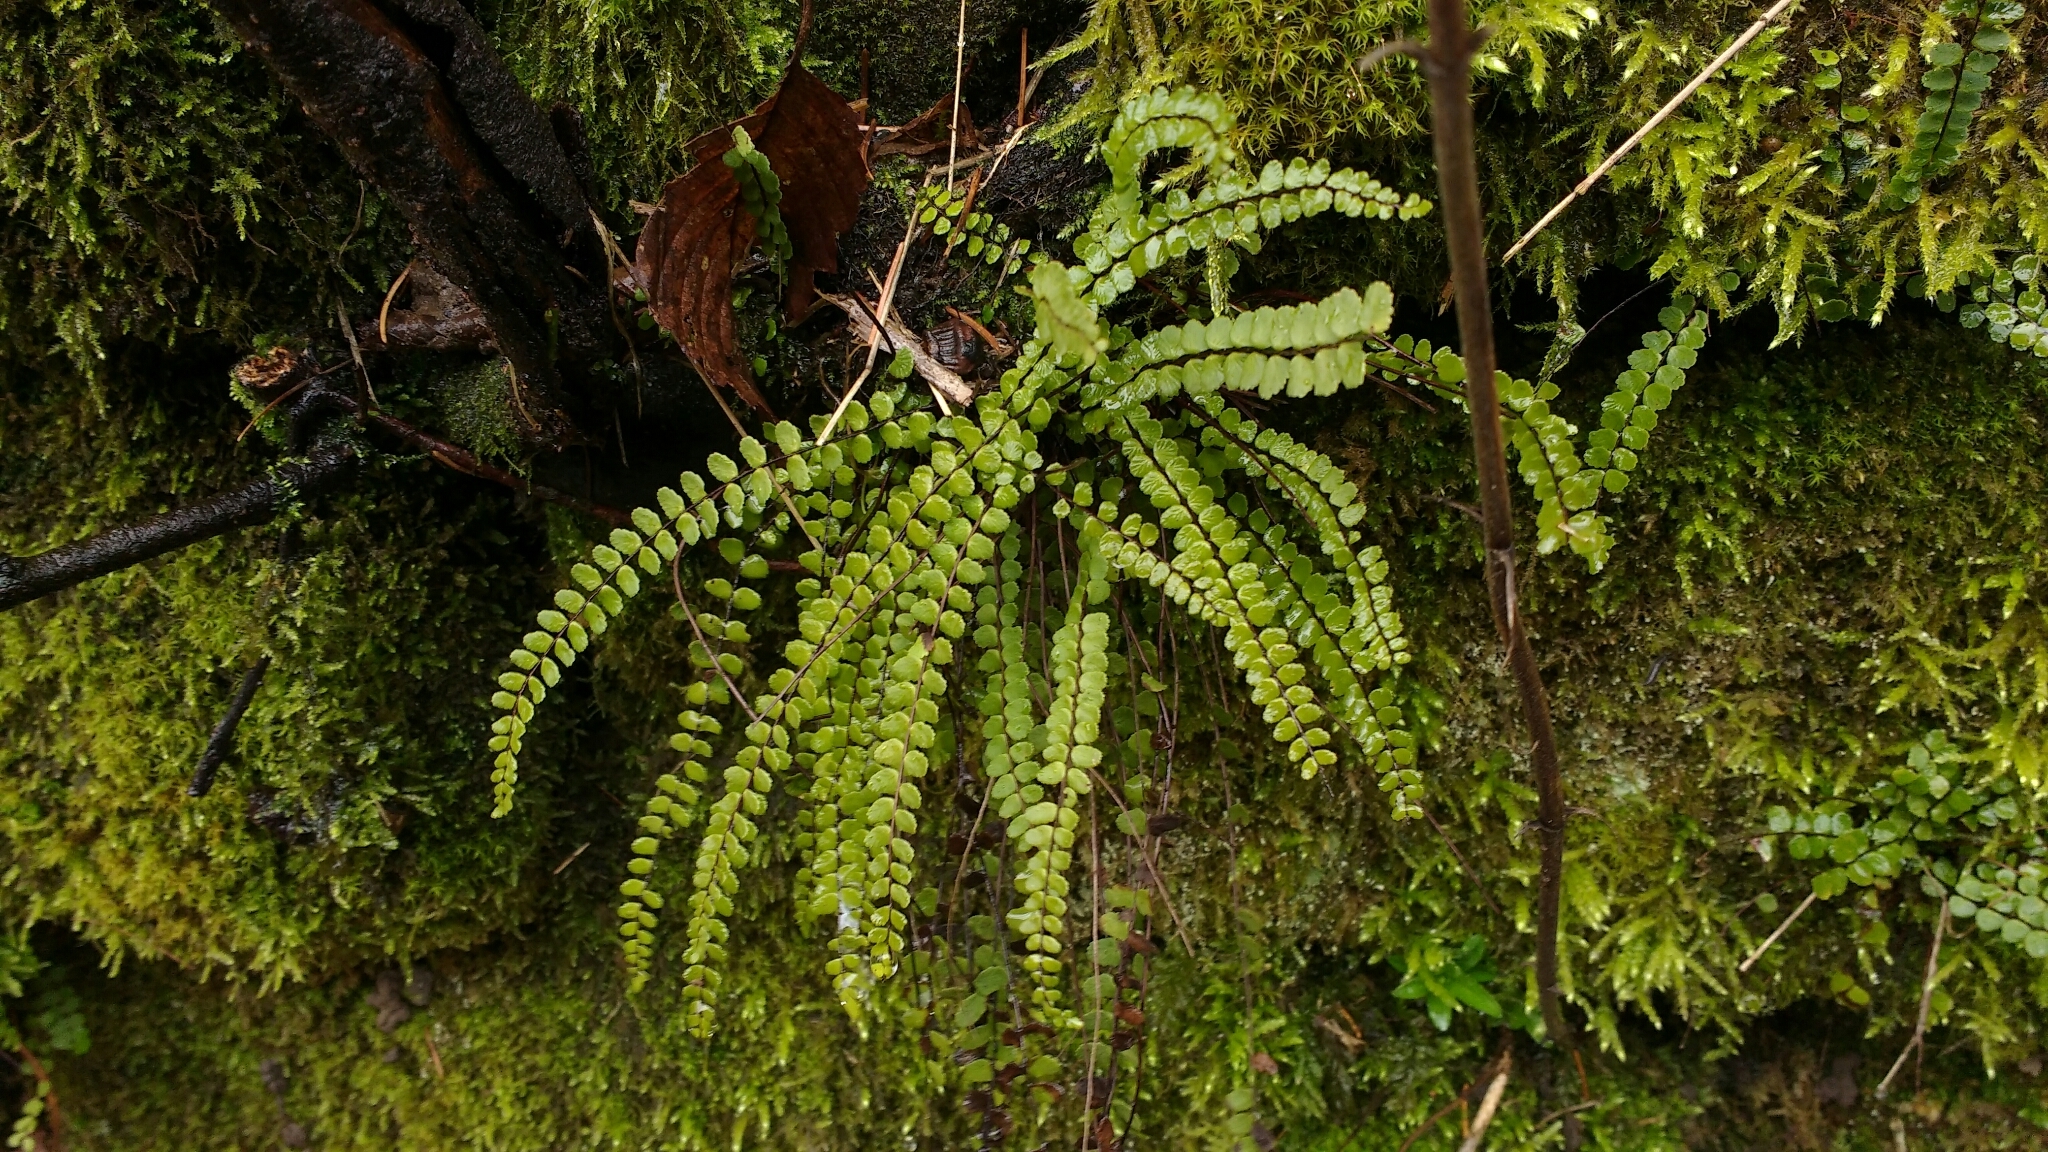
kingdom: Plantae
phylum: Tracheophyta
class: Polypodiopsida
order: Polypodiales
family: Aspleniaceae
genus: Asplenium
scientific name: Asplenium trichomanes
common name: Maidenhair spleenwort
